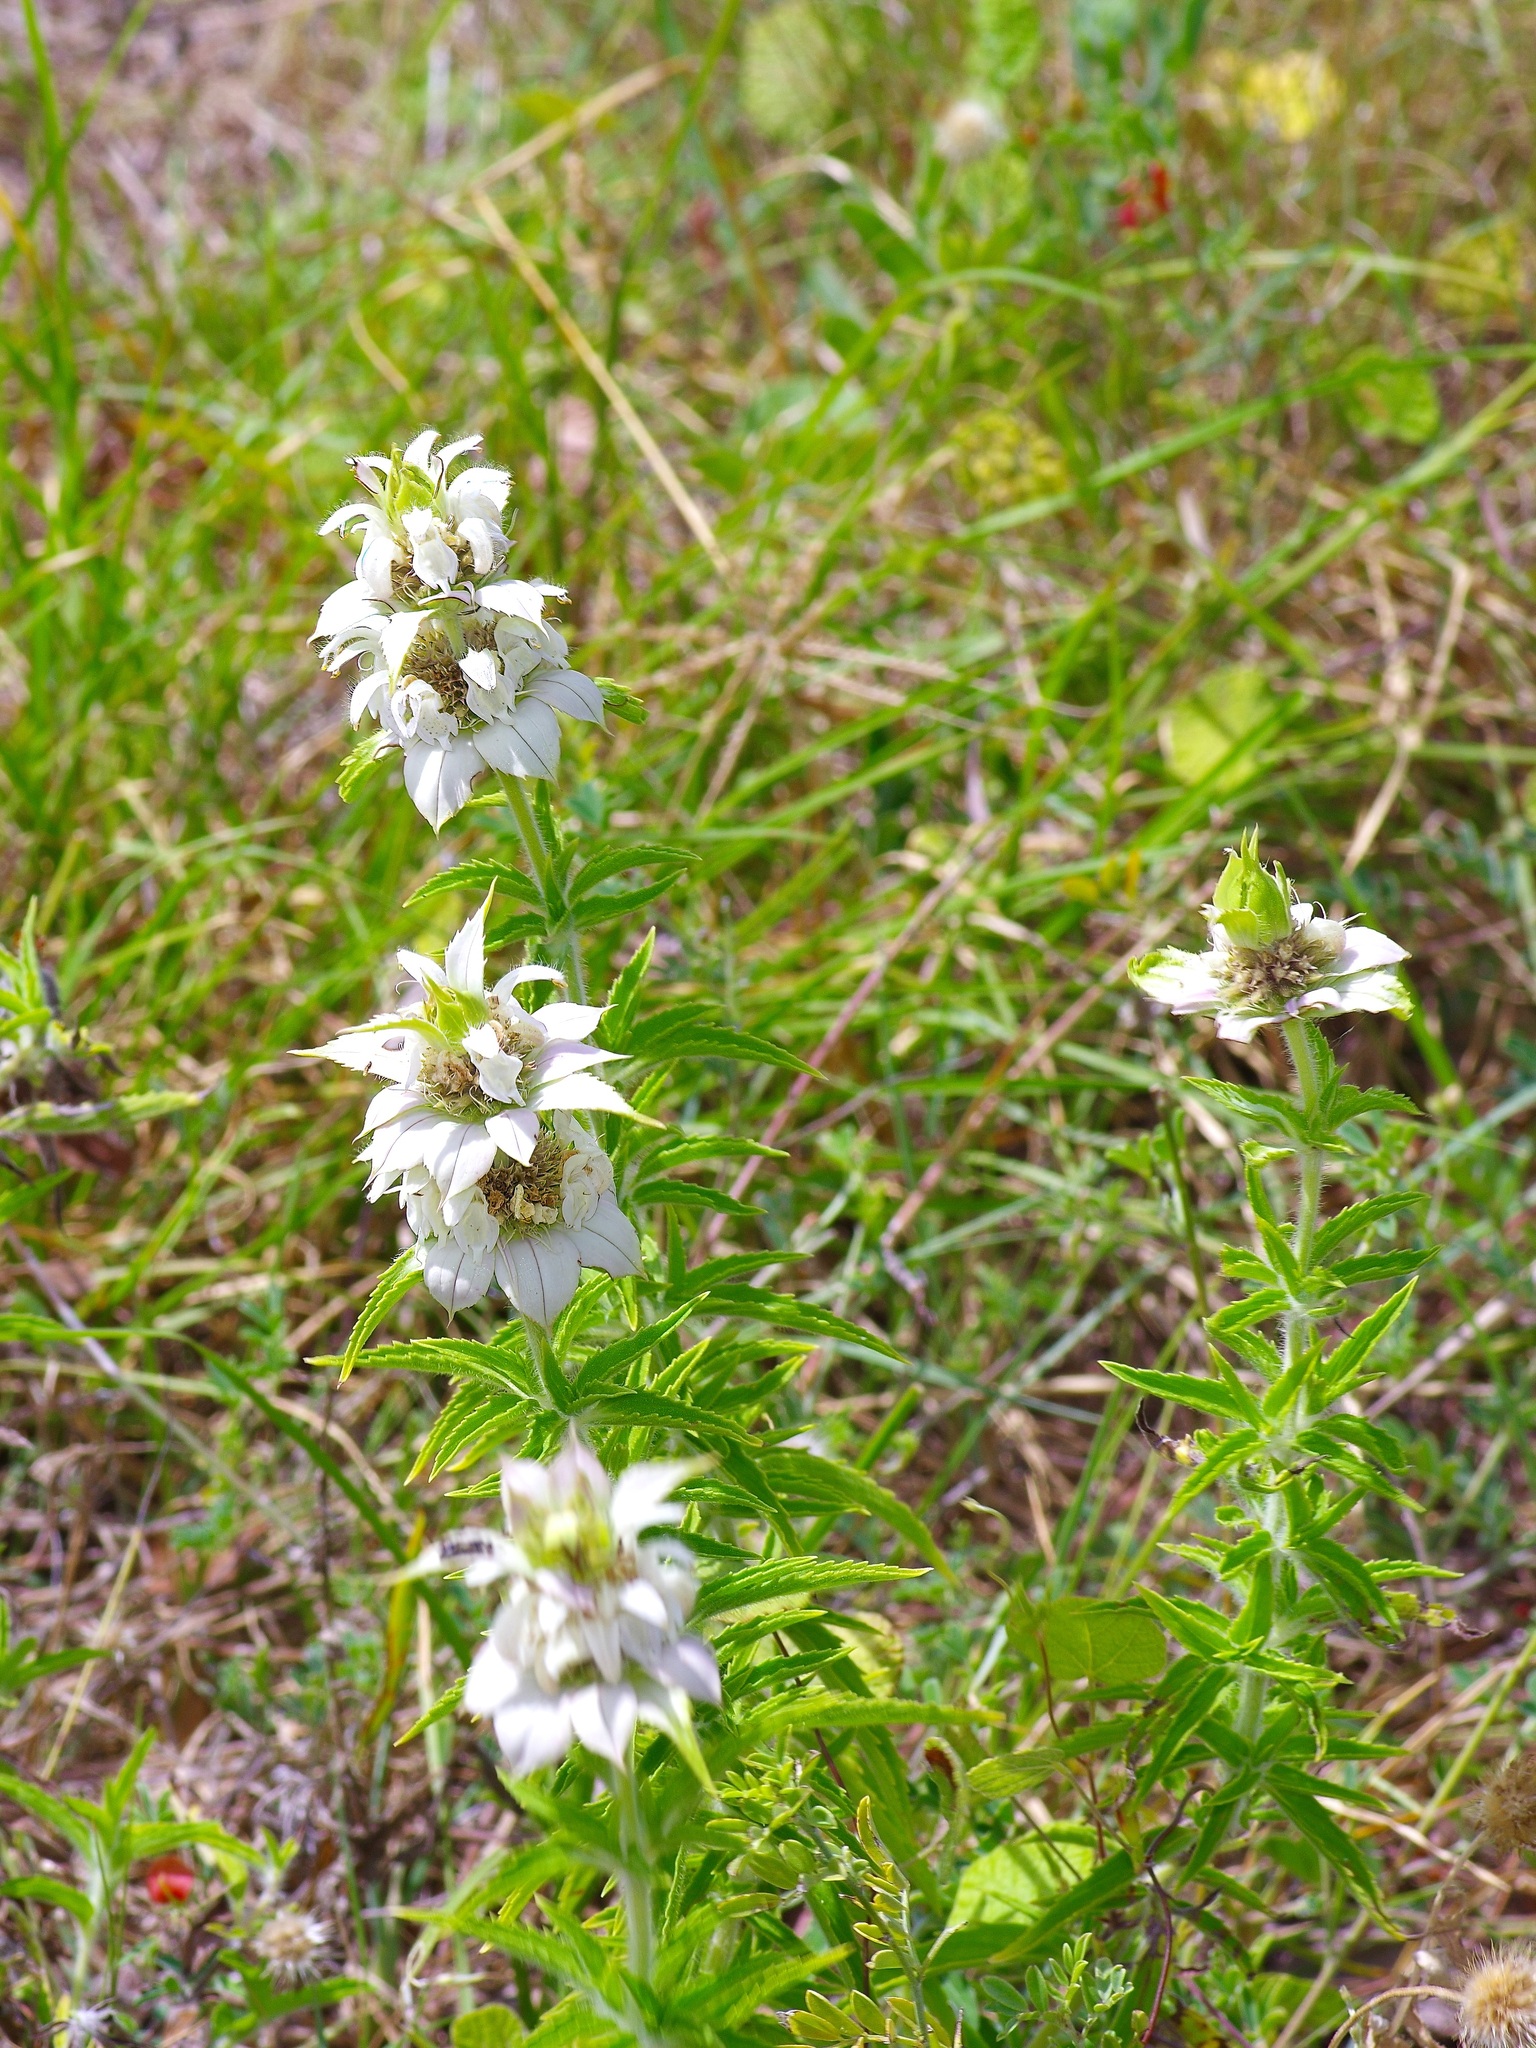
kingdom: Plantae
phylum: Tracheophyta
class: Magnoliopsida
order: Lamiales
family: Lamiaceae
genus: Monarda
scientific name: Monarda punctata
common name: Dotted monarda
